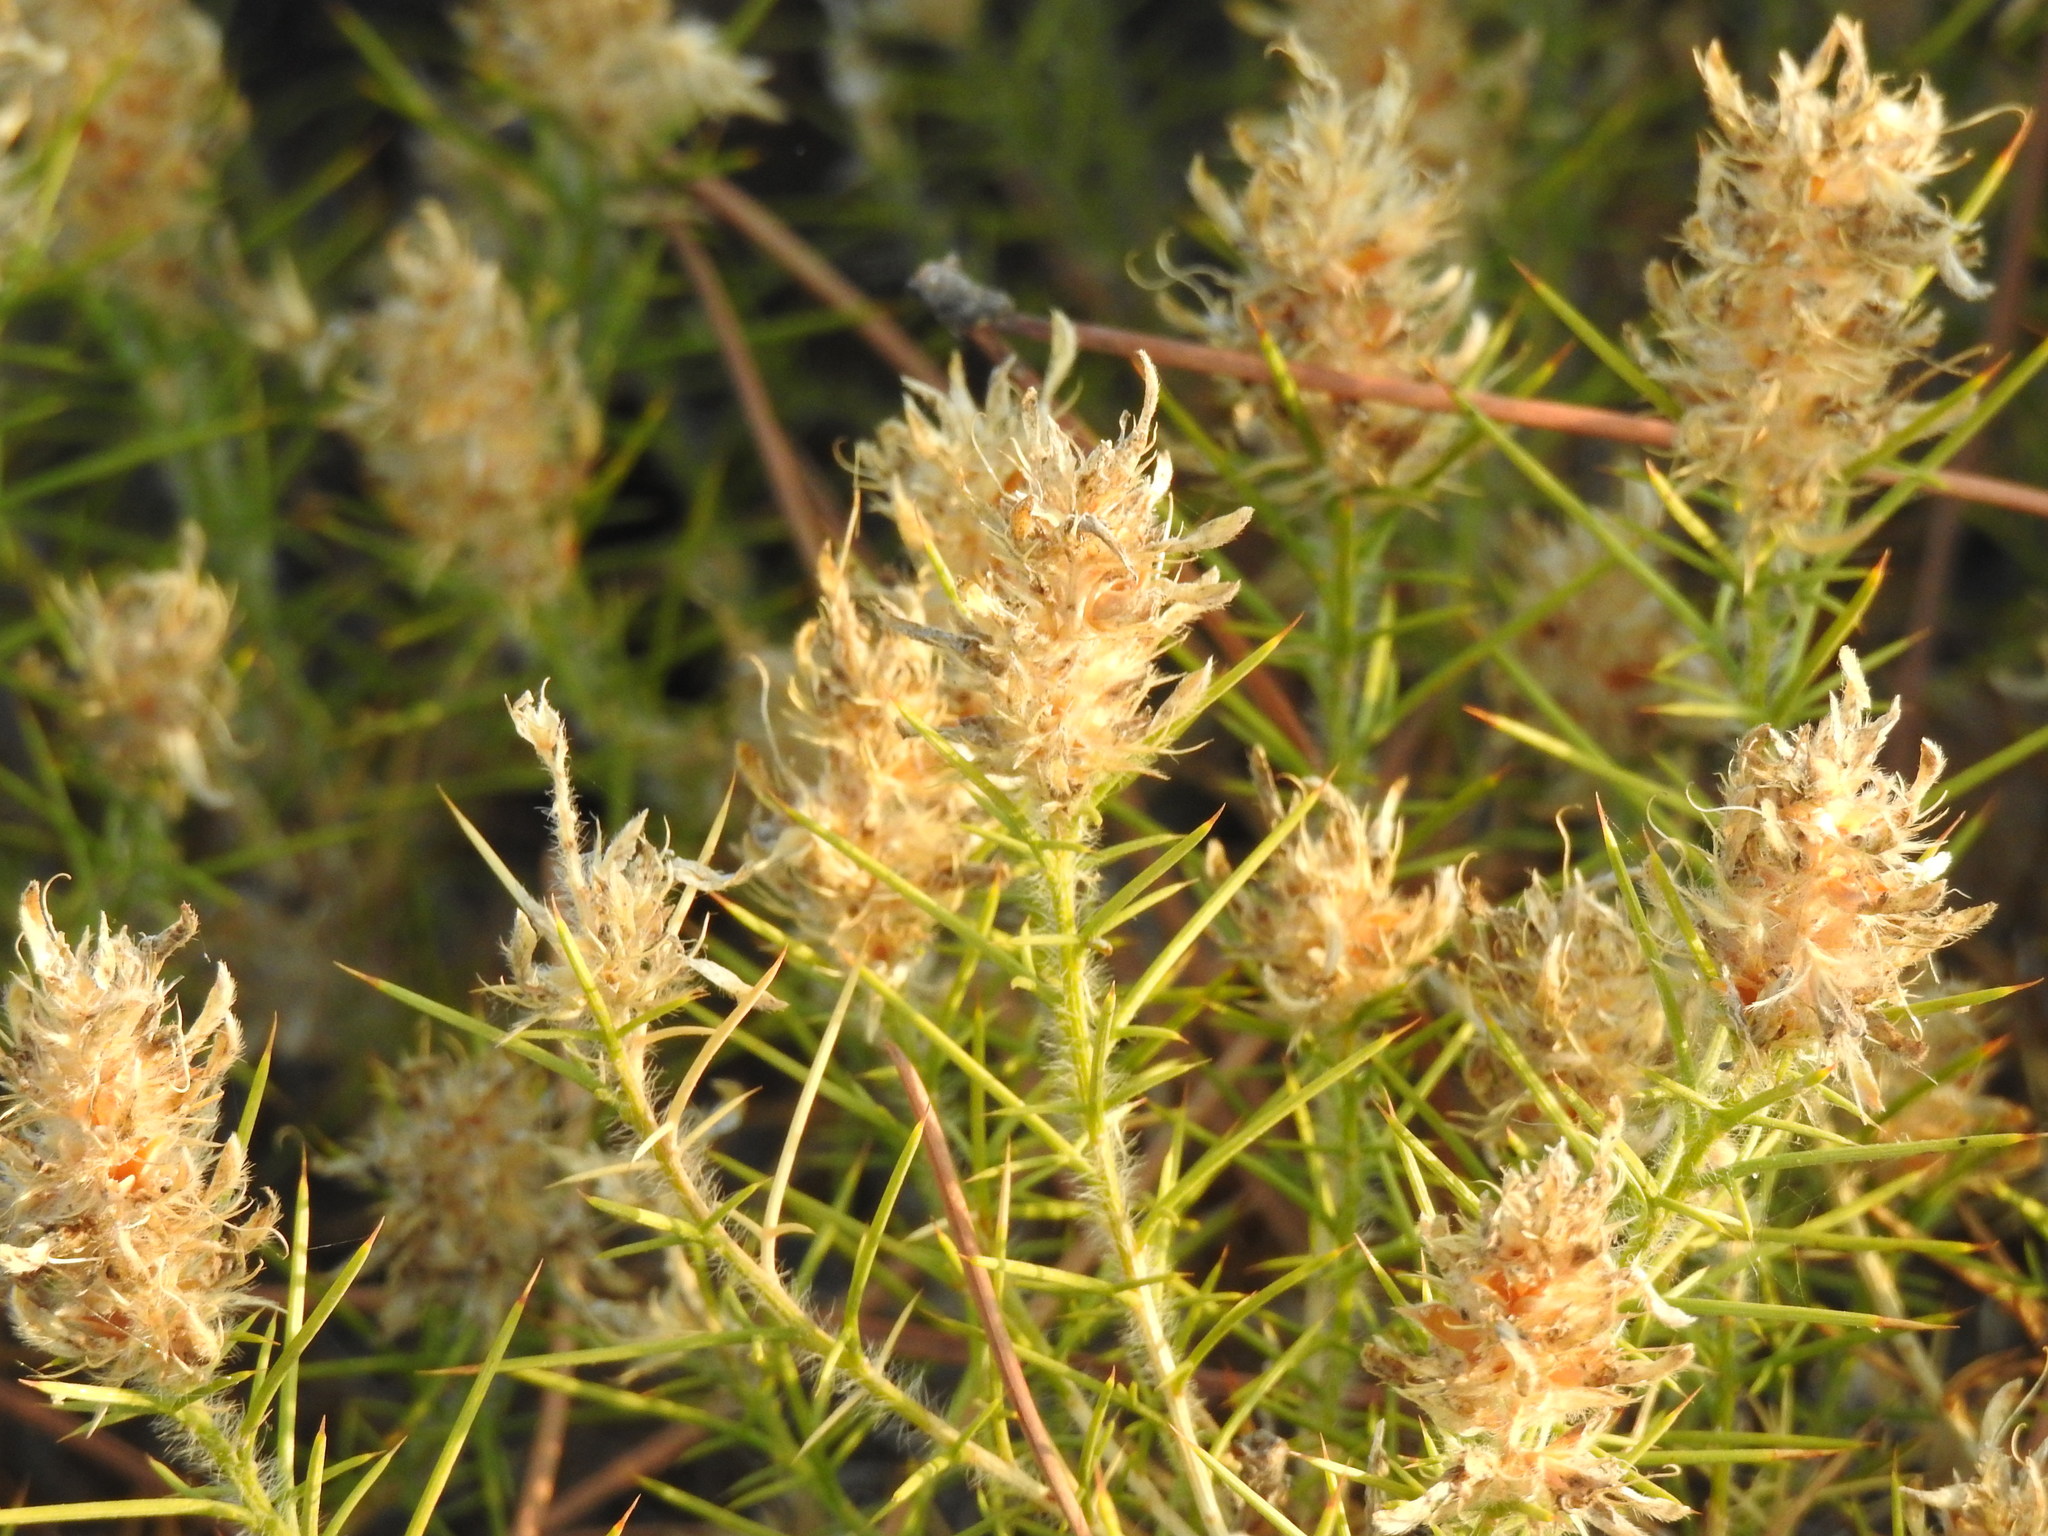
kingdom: Plantae
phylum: Tracheophyta
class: Magnoliopsida
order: Fabales
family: Fabaceae
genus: Genista
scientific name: Genista hirsuta
